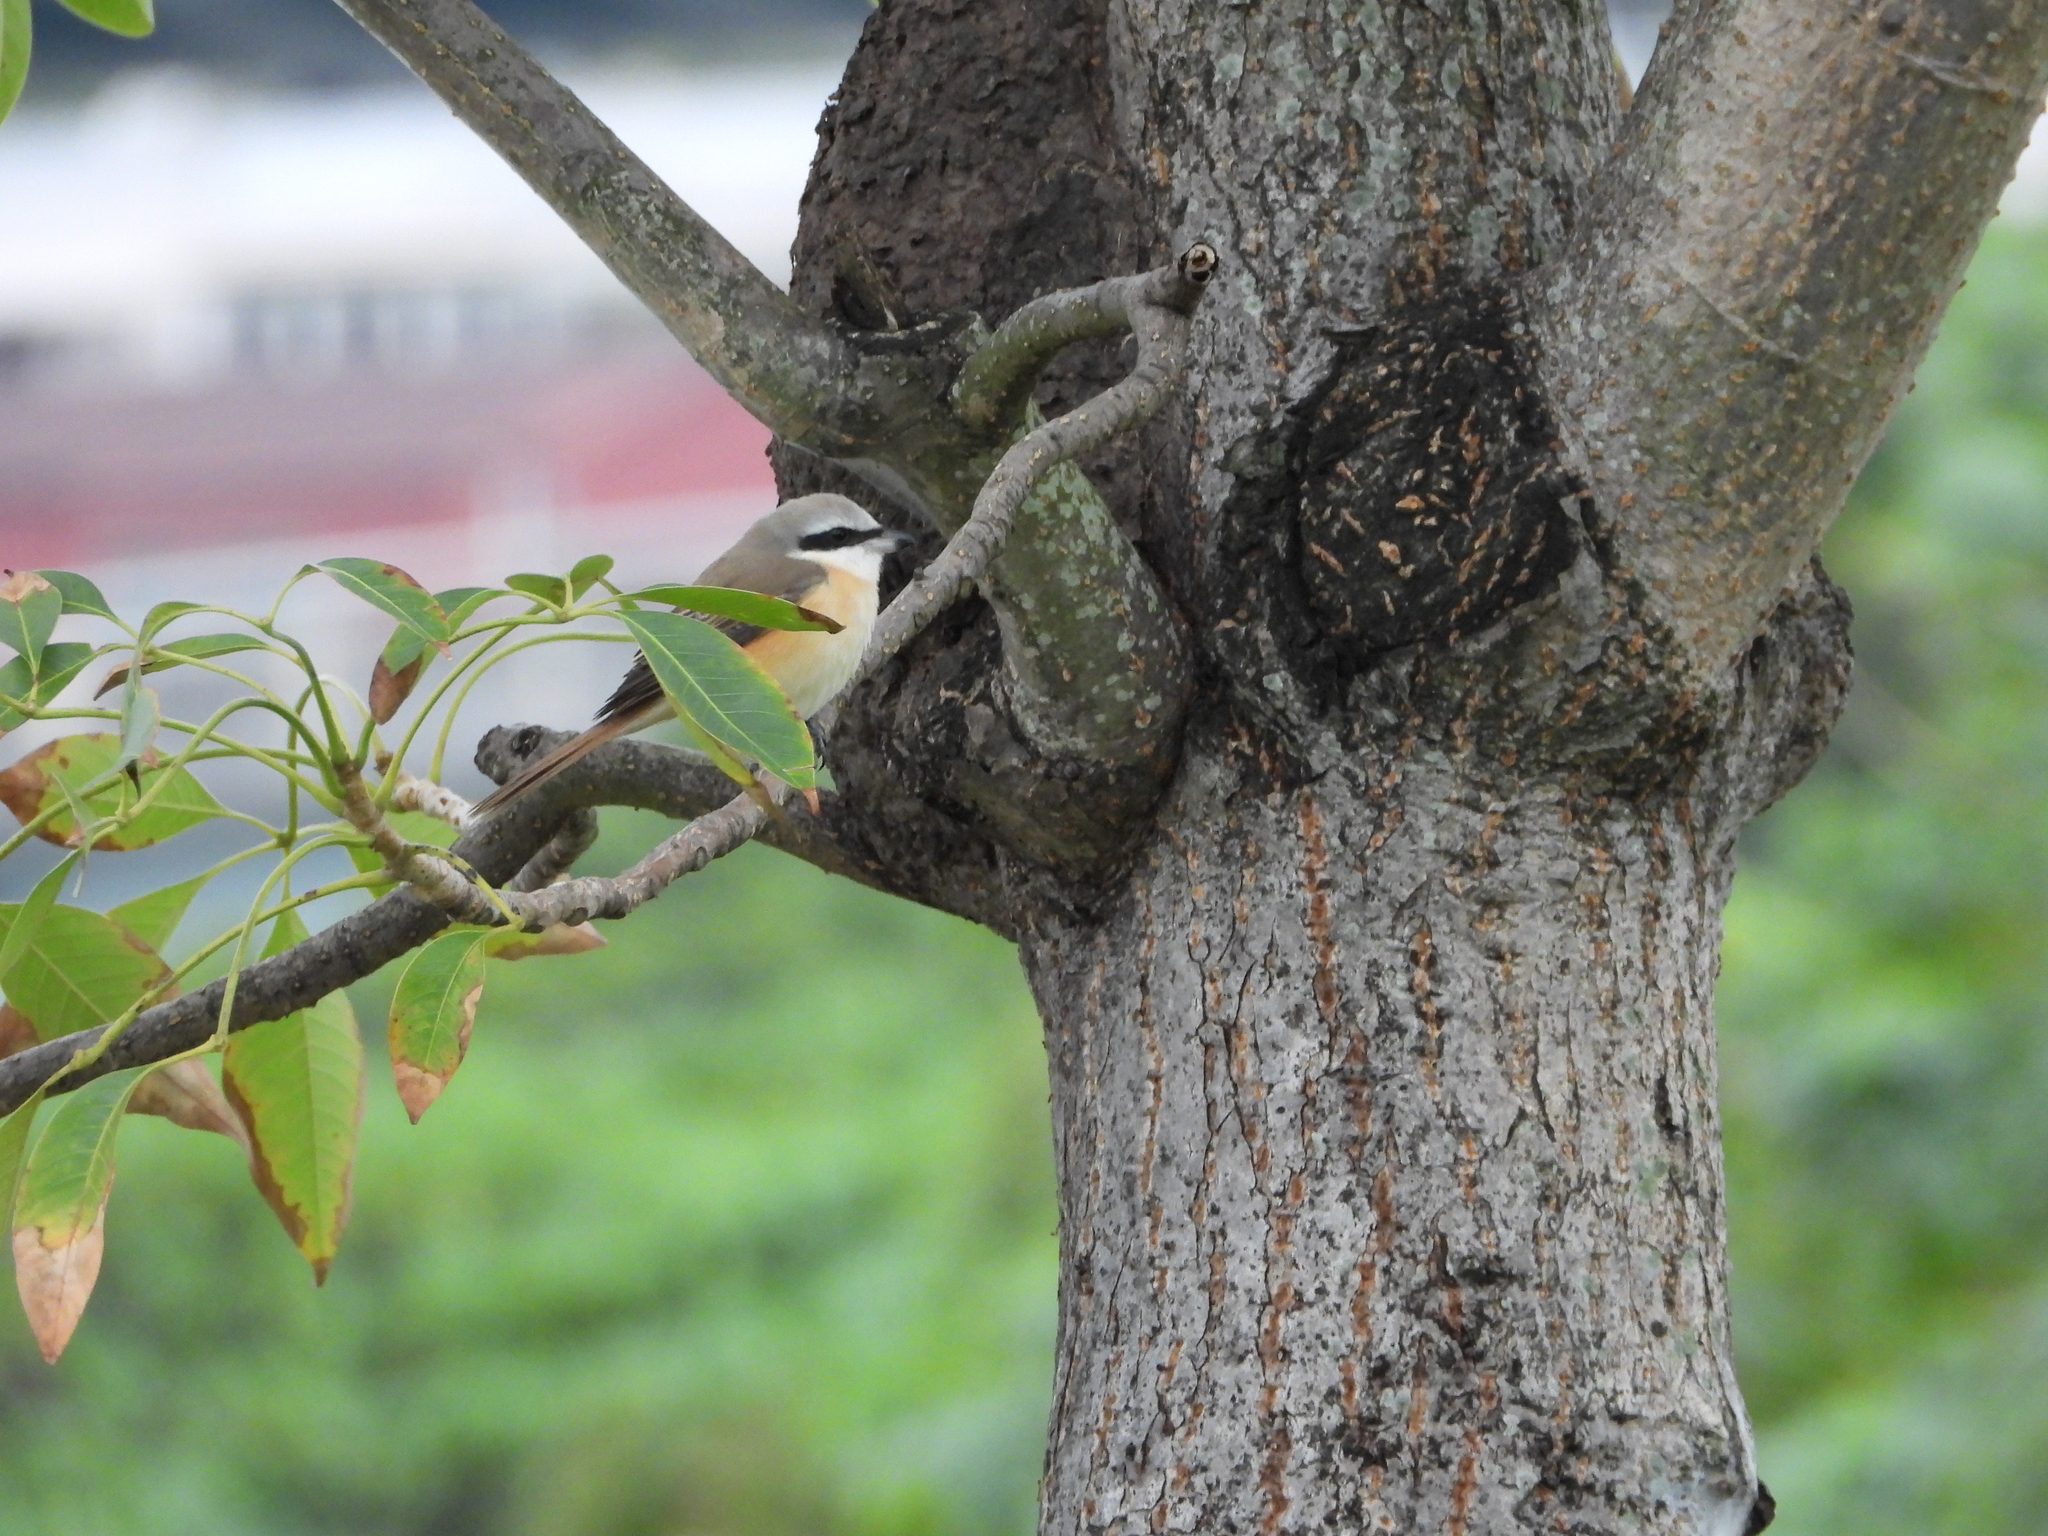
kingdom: Animalia
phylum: Chordata
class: Aves
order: Passeriformes
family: Laniidae
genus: Lanius
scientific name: Lanius cristatus
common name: Brown shrike
